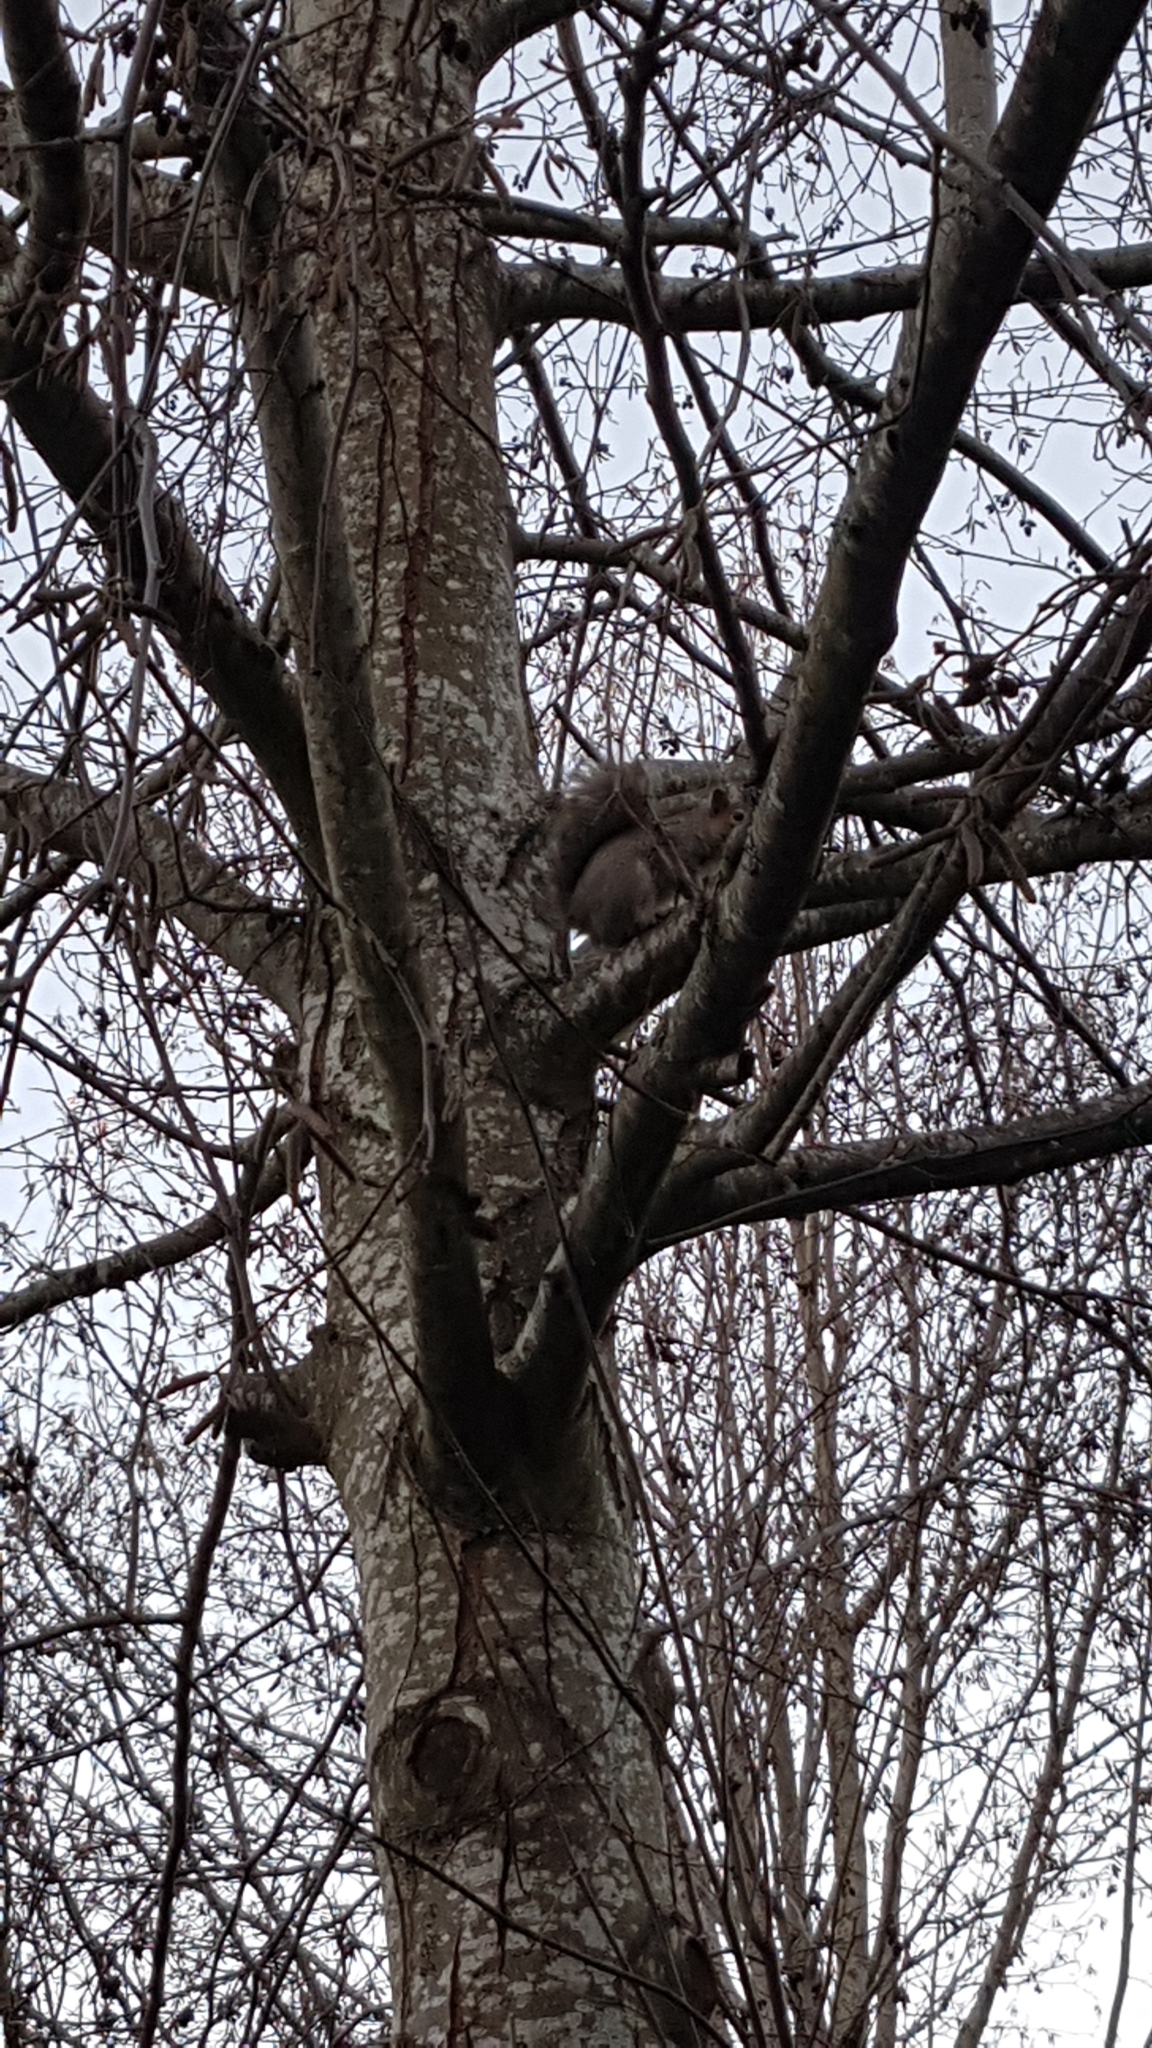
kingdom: Animalia
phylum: Chordata
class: Mammalia
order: Rodentia
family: Sciuridae
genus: Sciurus
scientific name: Sciurus carolinensis
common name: Eastern gray squirrel
